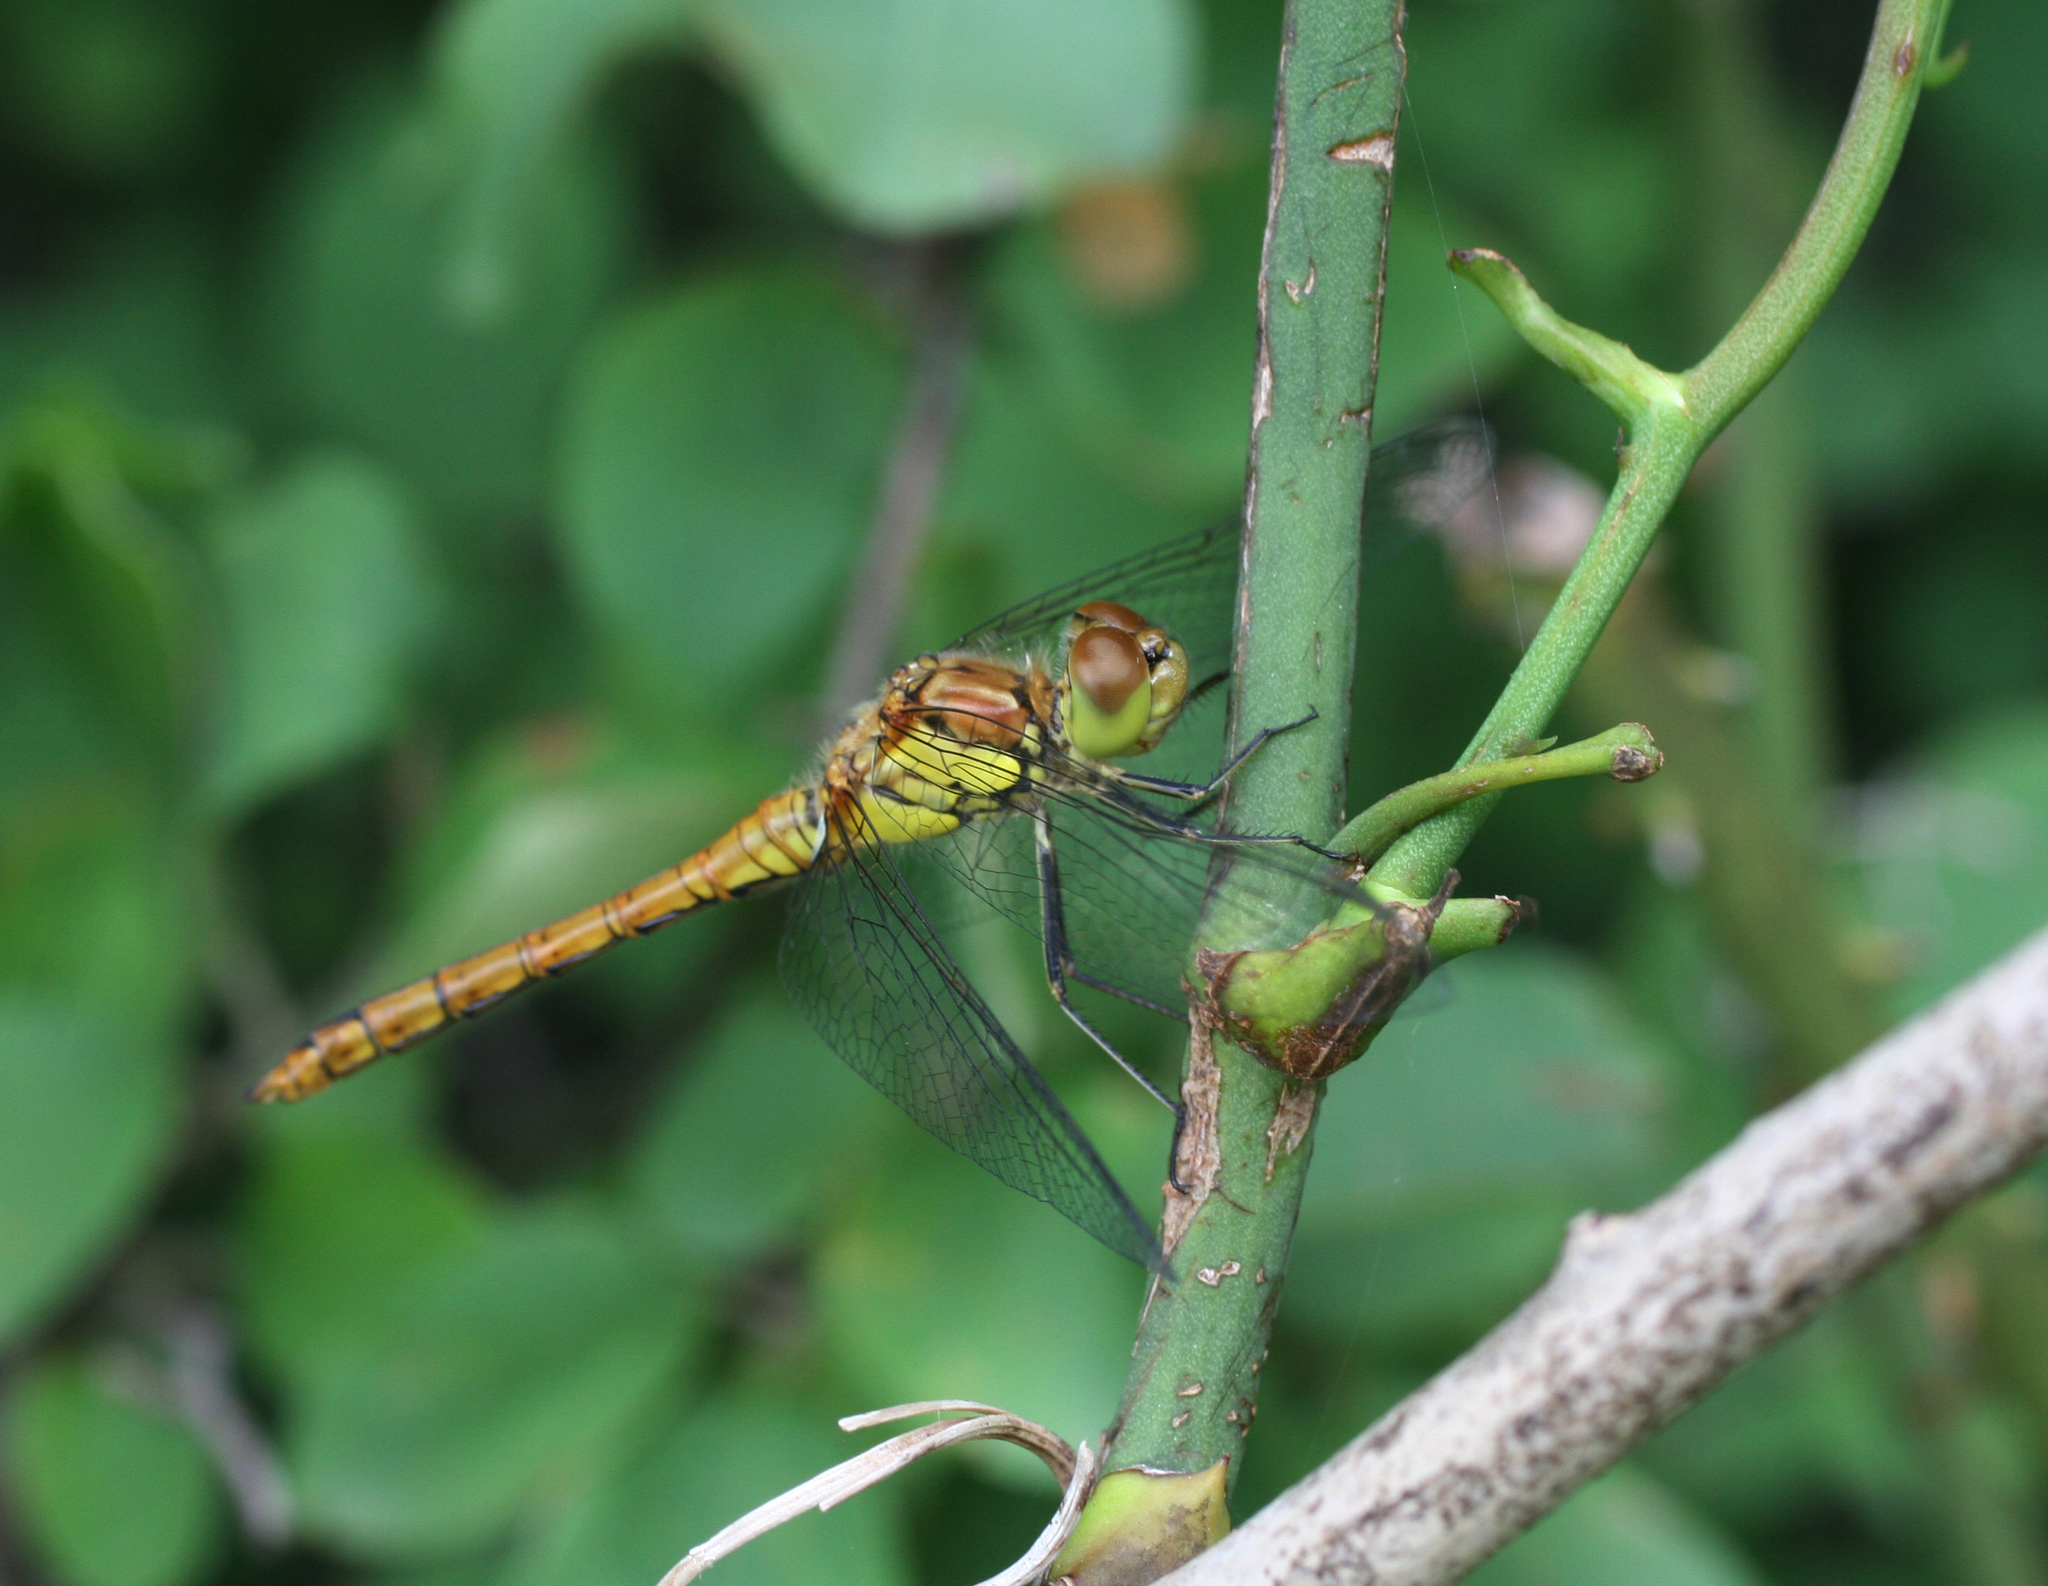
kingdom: Animalia
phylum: Arthropoda
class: Insecta
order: Odonata
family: Libellulidae
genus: Sympetrum
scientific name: Sympetrum striolatum
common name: Common darter
